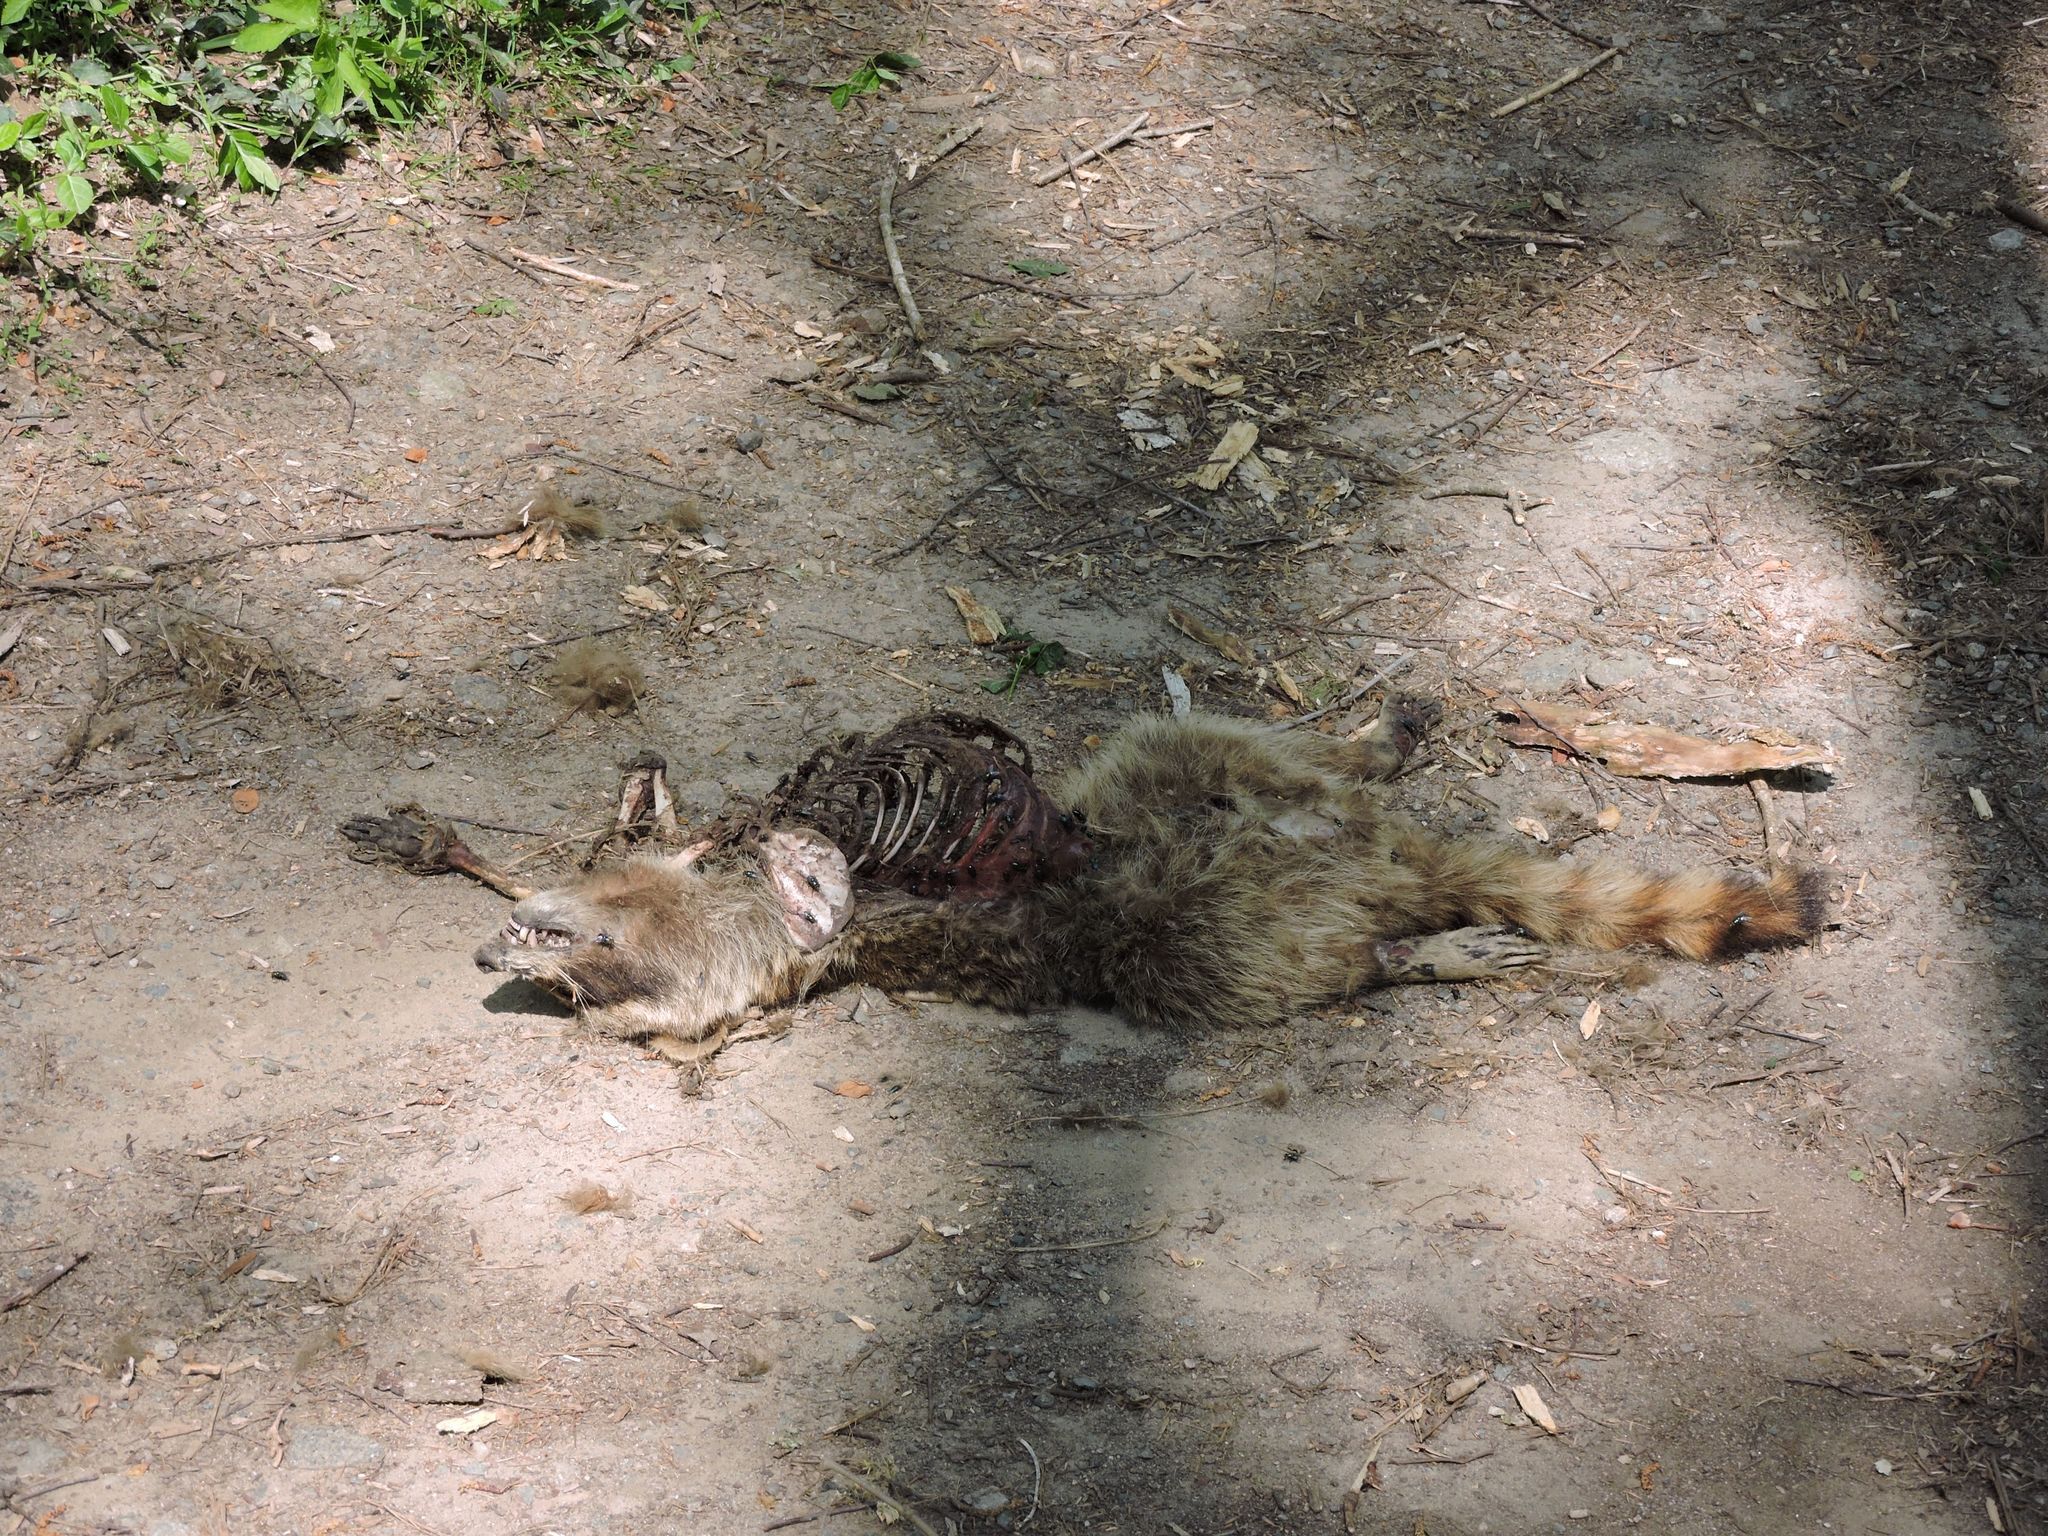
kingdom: Animalia
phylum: Chordata
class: Mammalia
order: Carnivora
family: Procyonidae
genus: Procyon
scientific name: Procyon lotor
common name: Raccoon
